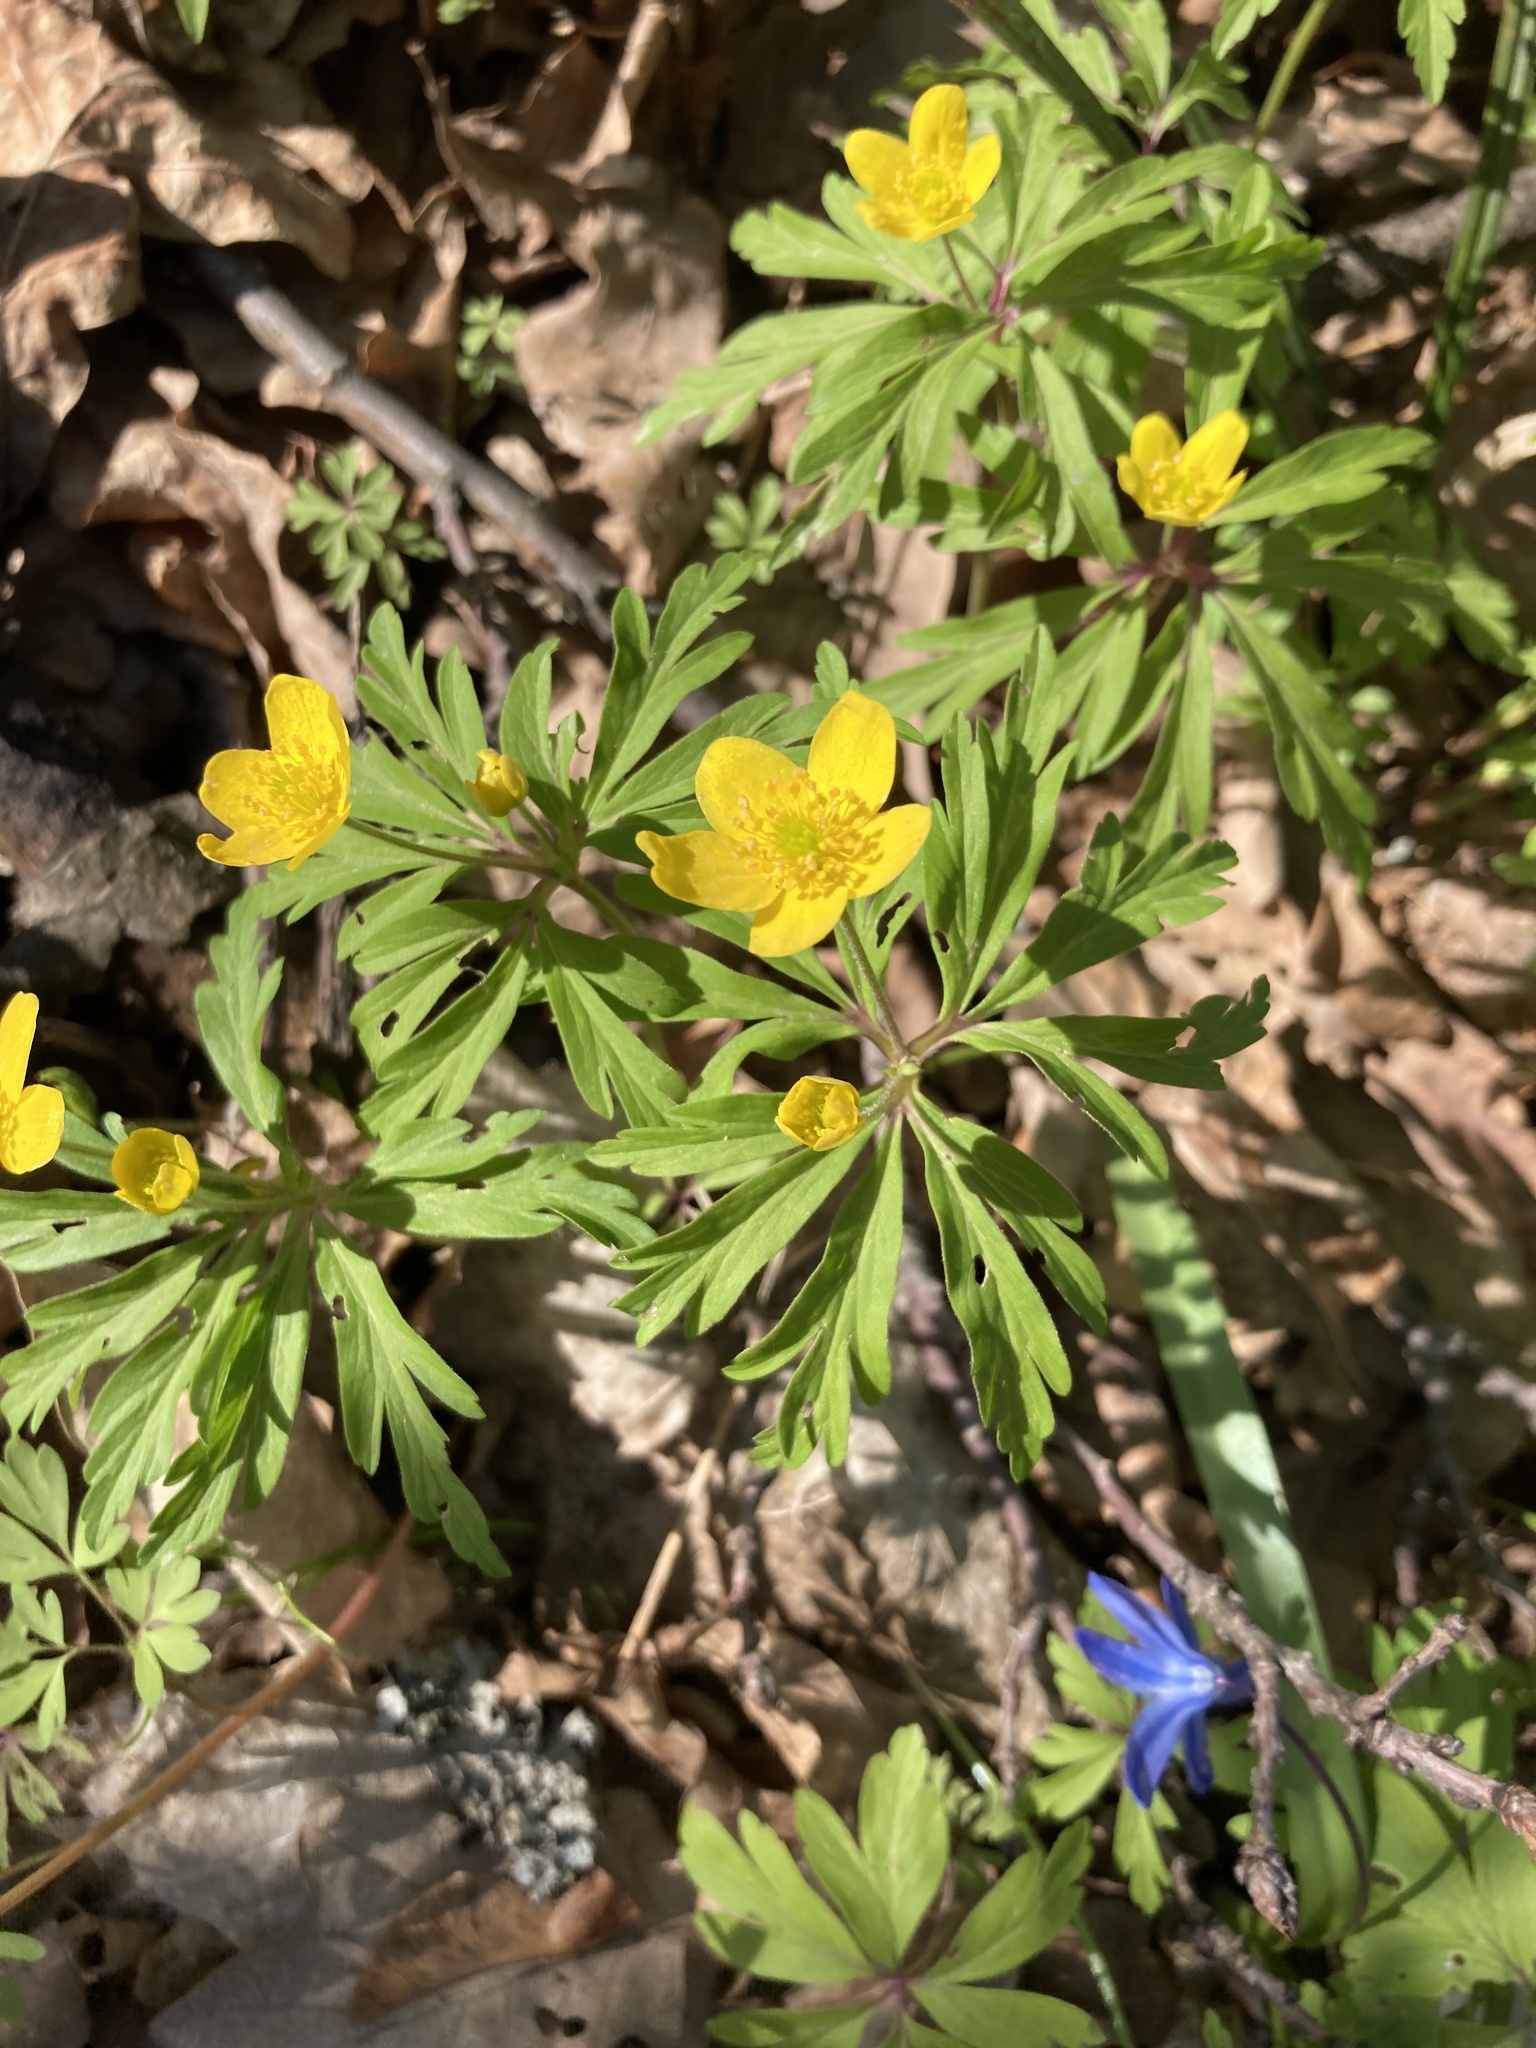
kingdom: Plantae
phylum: Tracheophyta
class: Magnoliopsida
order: Ranunculales
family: Ranunculaceae
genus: Anemone
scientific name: Anemone ranunculoides
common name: Yellow anemone
